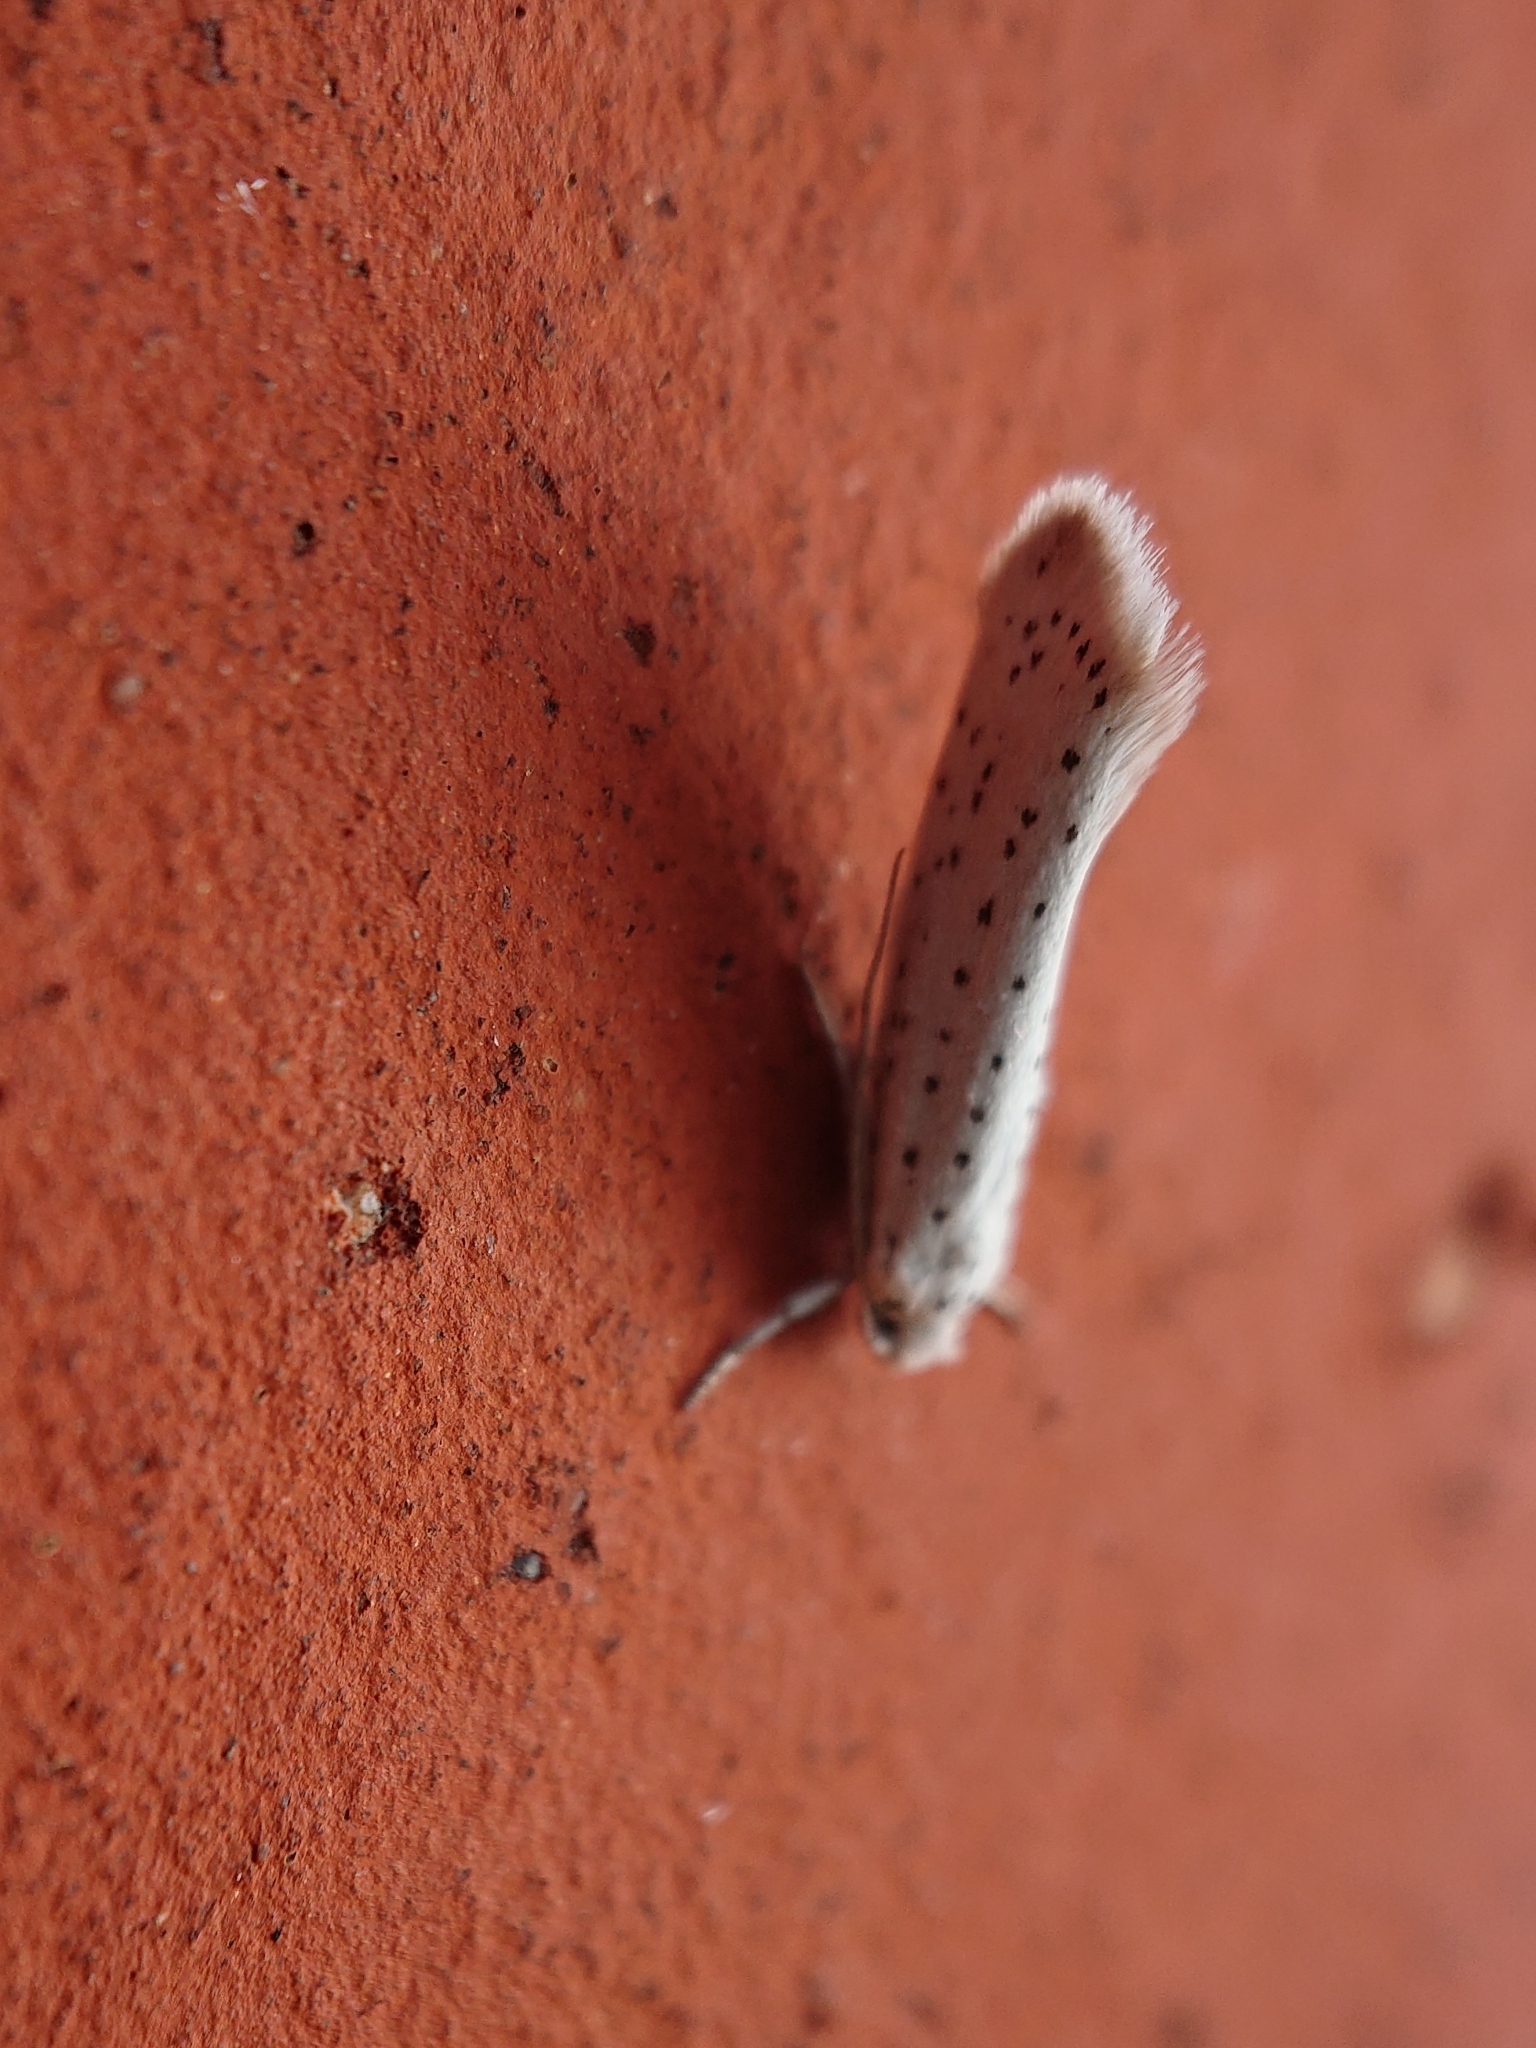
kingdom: Animalia
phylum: Arthropoda
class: Insecta
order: Lepidoptera
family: Yponomeutidae
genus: Yponomeuta
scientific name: Yponomeuta evonymella
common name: Bird-cherry ermine
